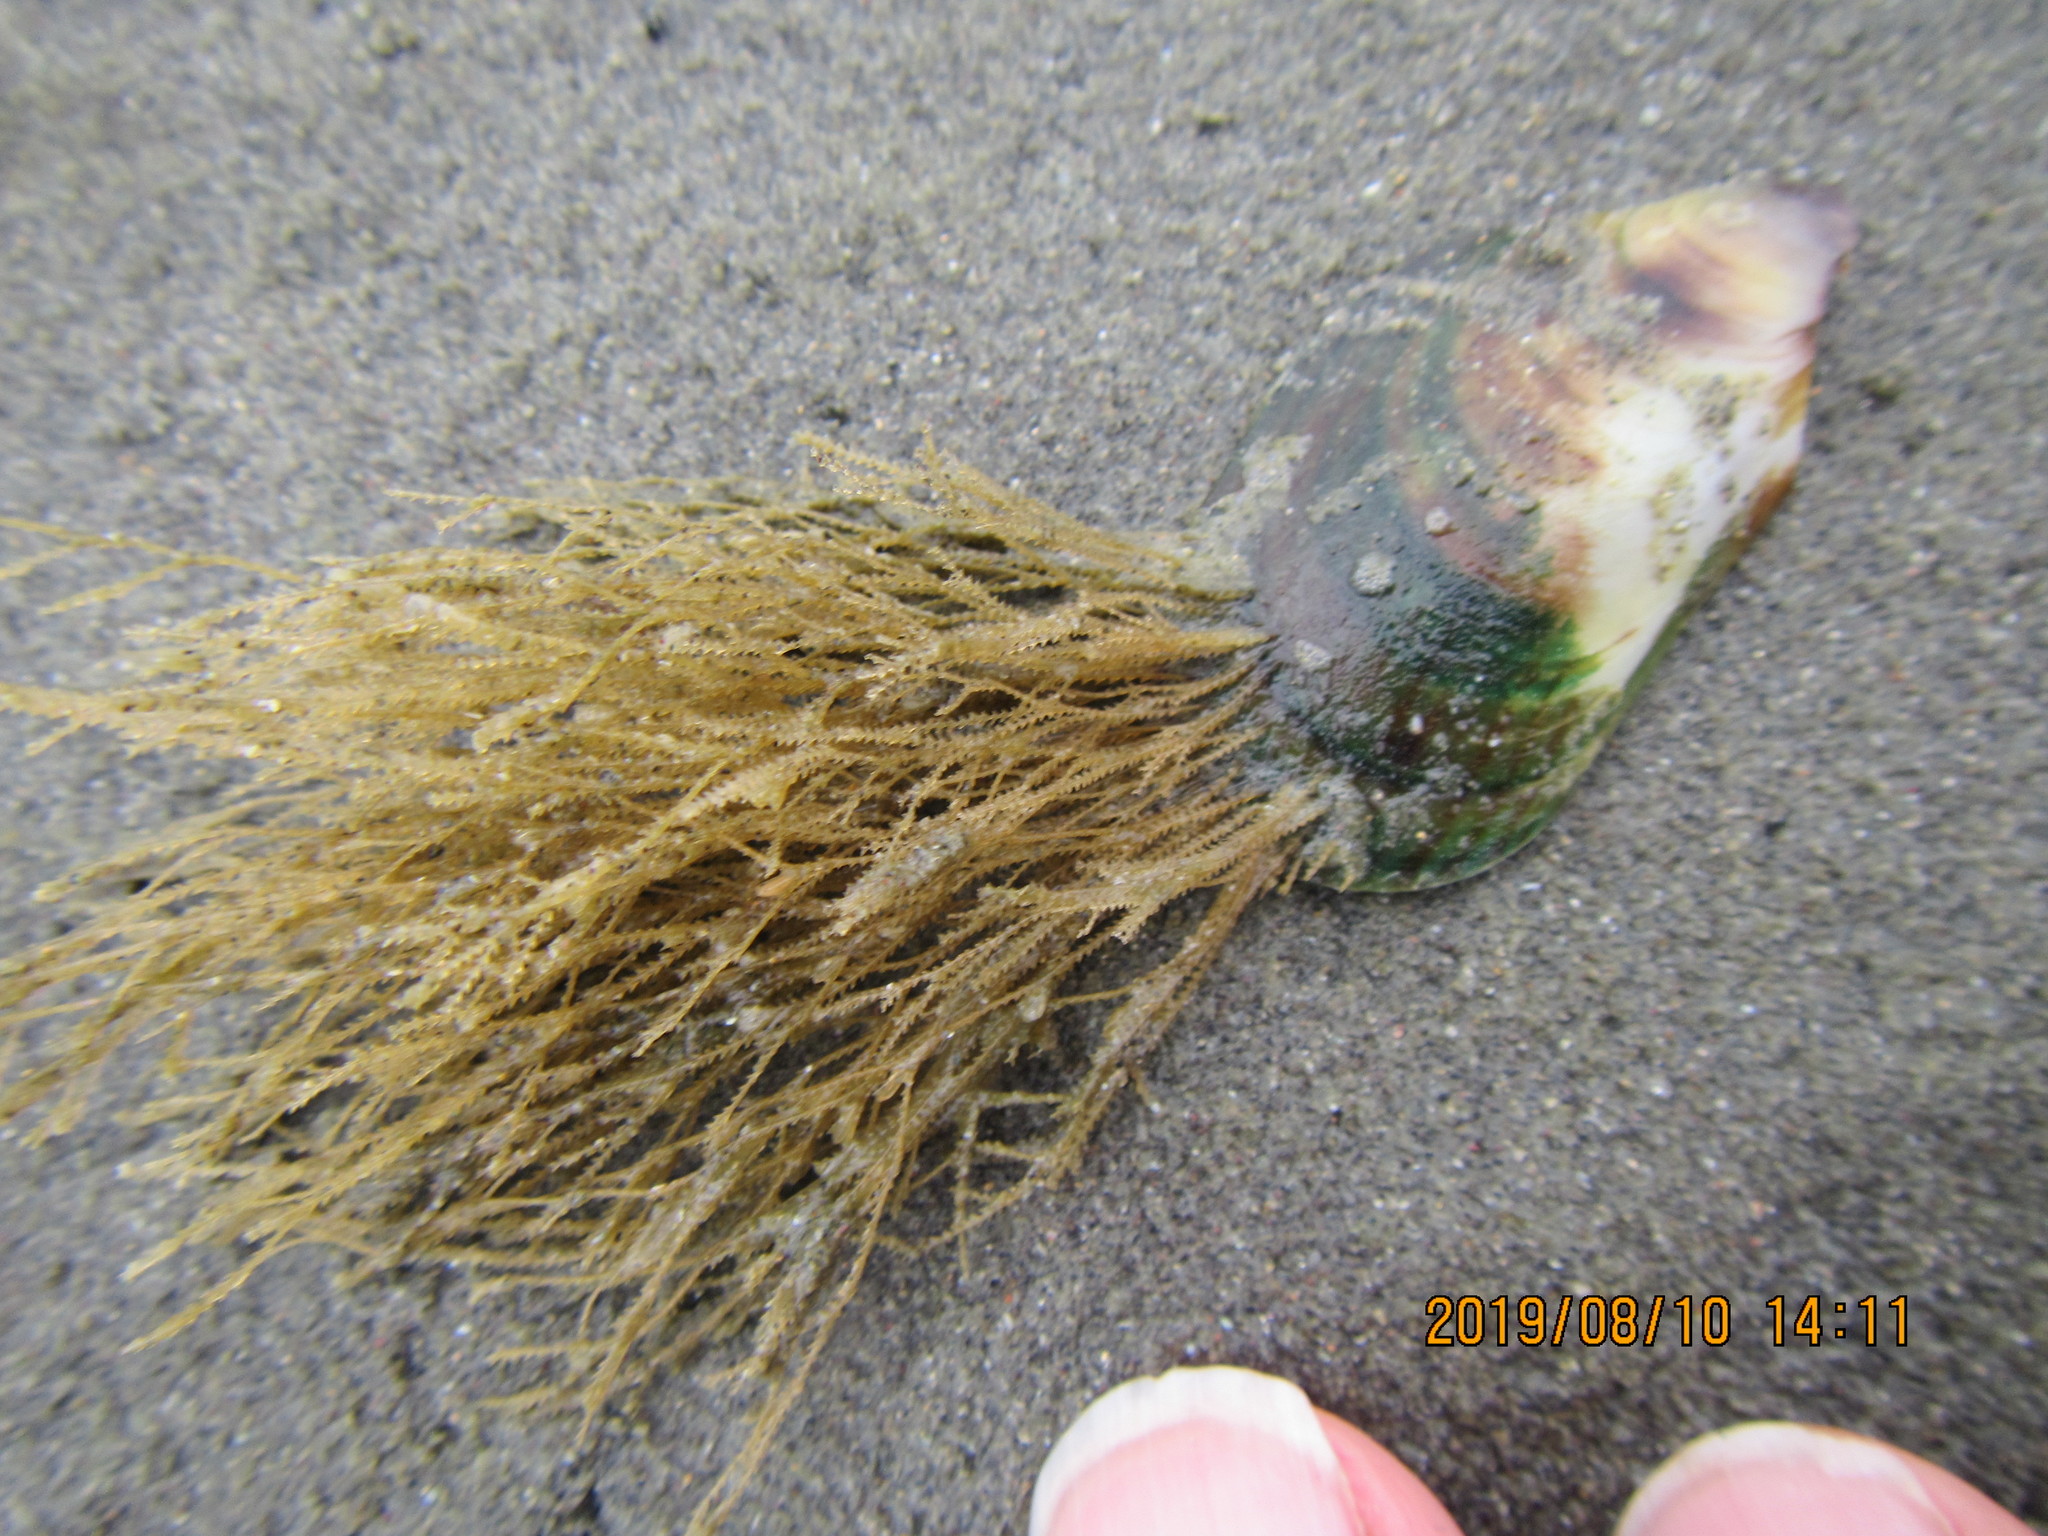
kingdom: Animalia
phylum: Cnidaria
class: Hydrozoa
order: Leptothecata
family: Sertulariidae
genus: Amphisbetia
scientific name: Amphisbetia bispinosa
